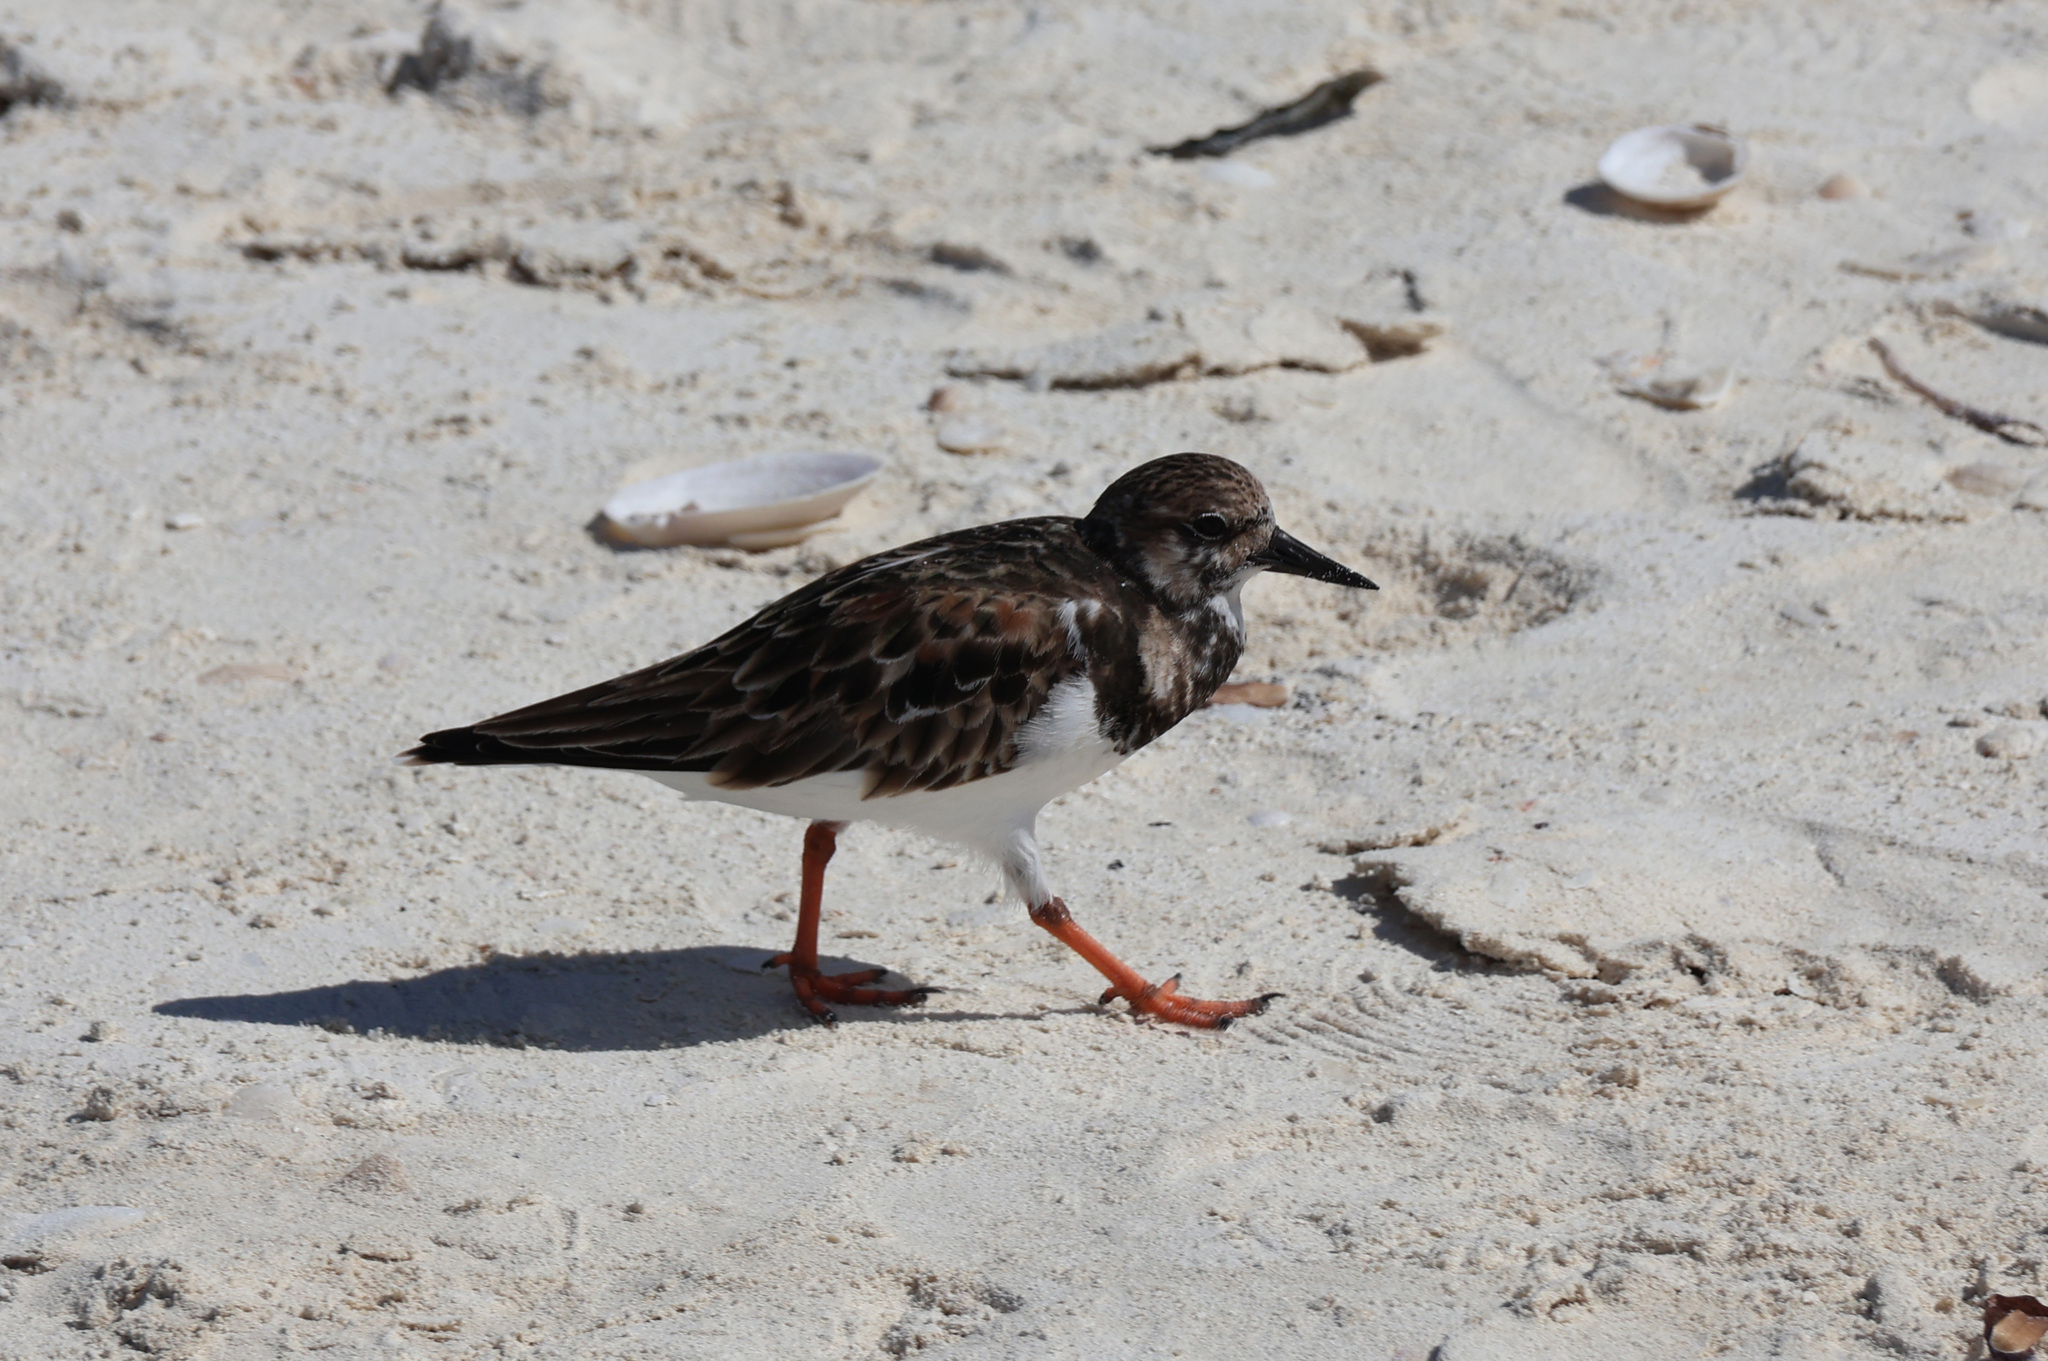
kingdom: Animalia
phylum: Chordata
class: Aves
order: Charadriiformes
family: Scolopacidae
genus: Arenaria
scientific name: Arenaria interpres
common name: Ruddy turnstone
